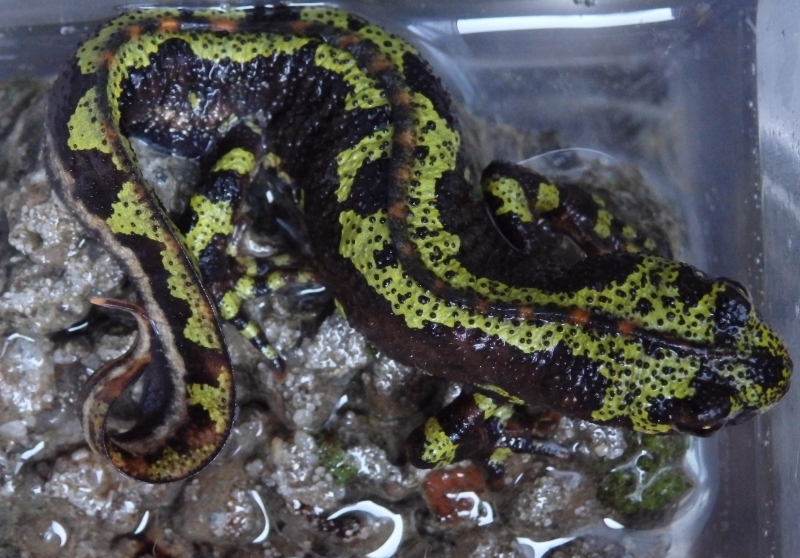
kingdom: Animalia
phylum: Chordata
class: Amphibia
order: Caudata
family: Salamandridae
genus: Triturus
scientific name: Triturus marmoratus
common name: Marbled newt
